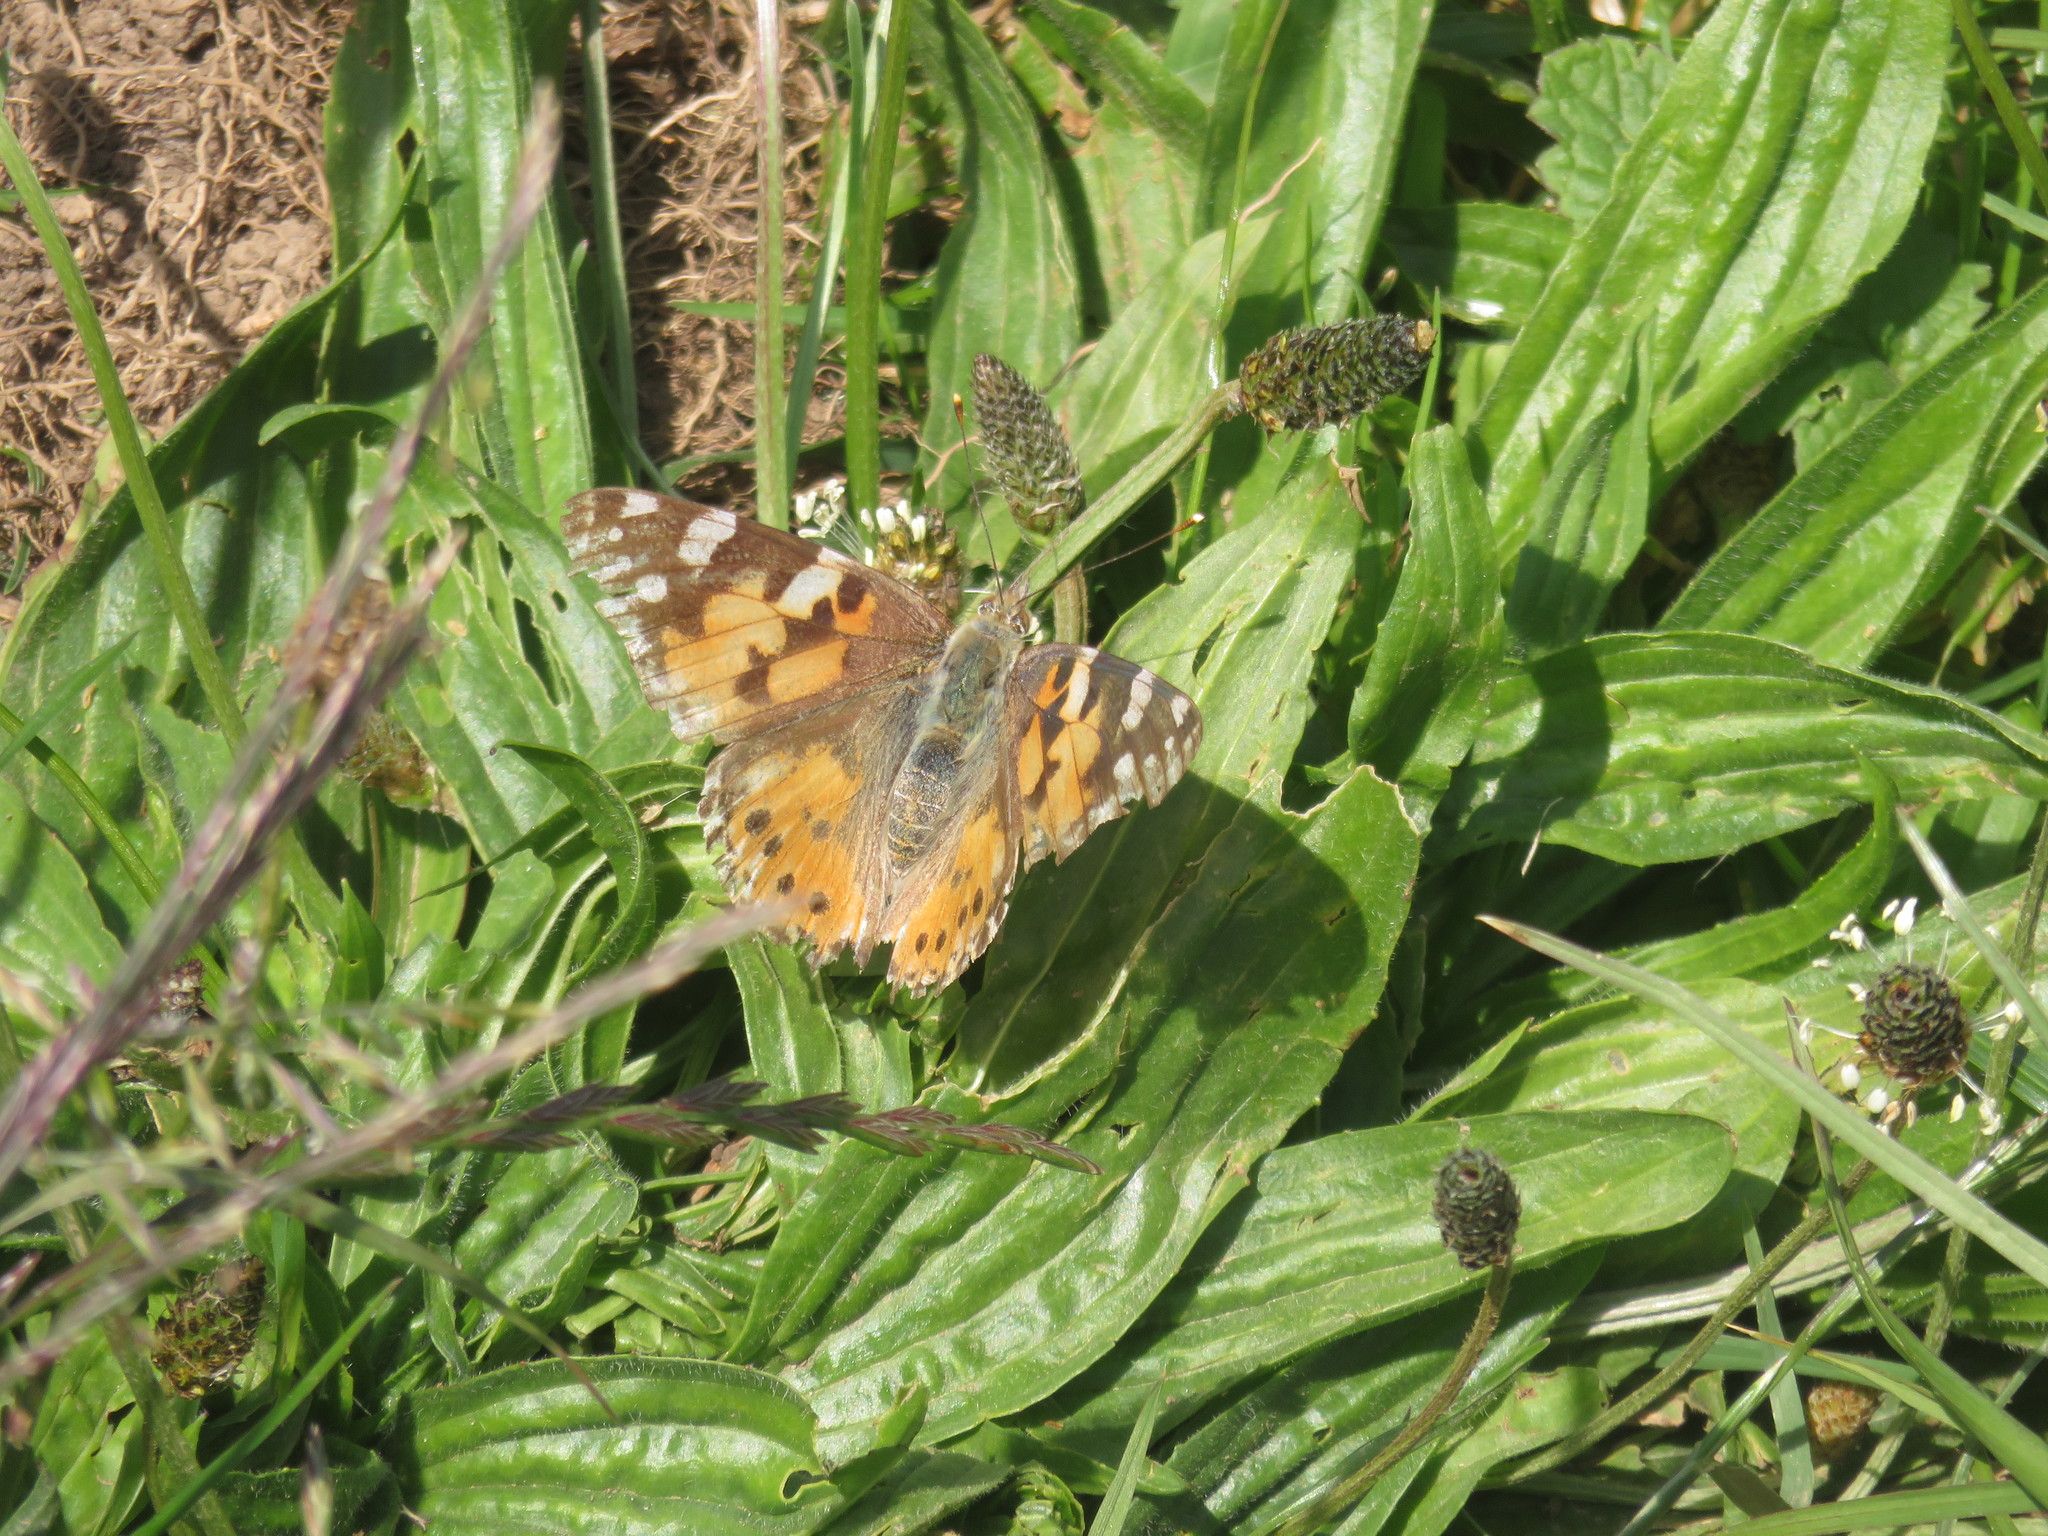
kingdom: Animalia
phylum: Arthropoda
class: Insecta
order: Lepidoptera
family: Nymphalidae
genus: Vanessa
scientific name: Vanessa cardui
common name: Painted lady
